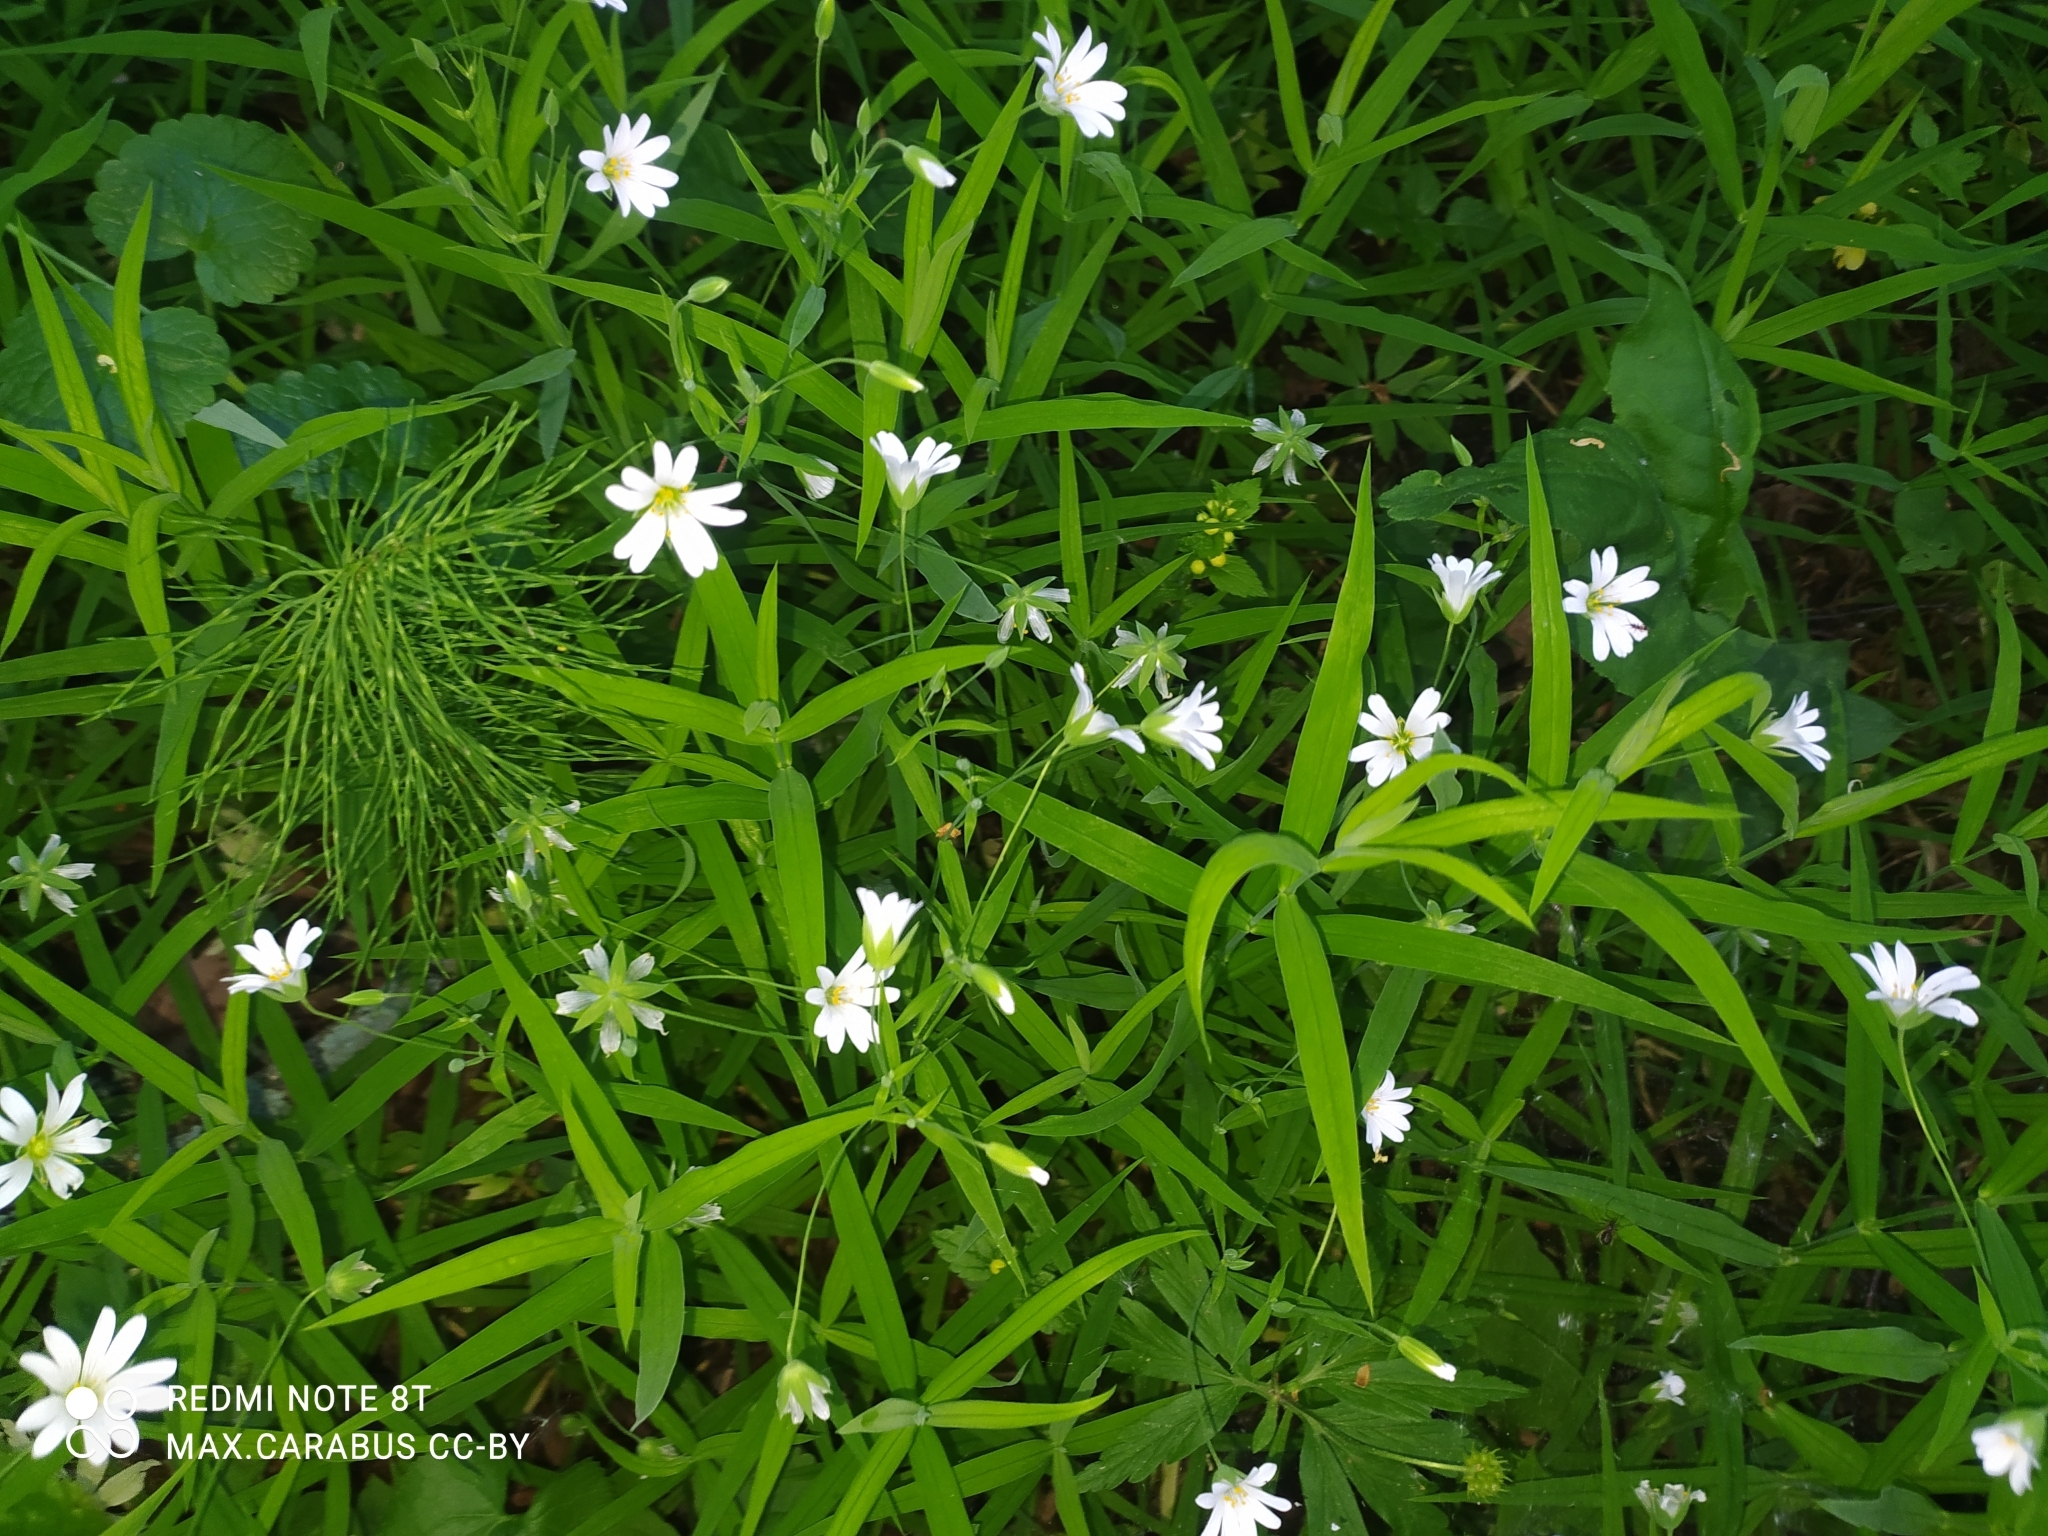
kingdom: Plantae
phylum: Tracheophyta
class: Magnoliopsida
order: Caryophyllales
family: Caryophyllaceae
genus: Rabelera
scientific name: Rabelera holostea
